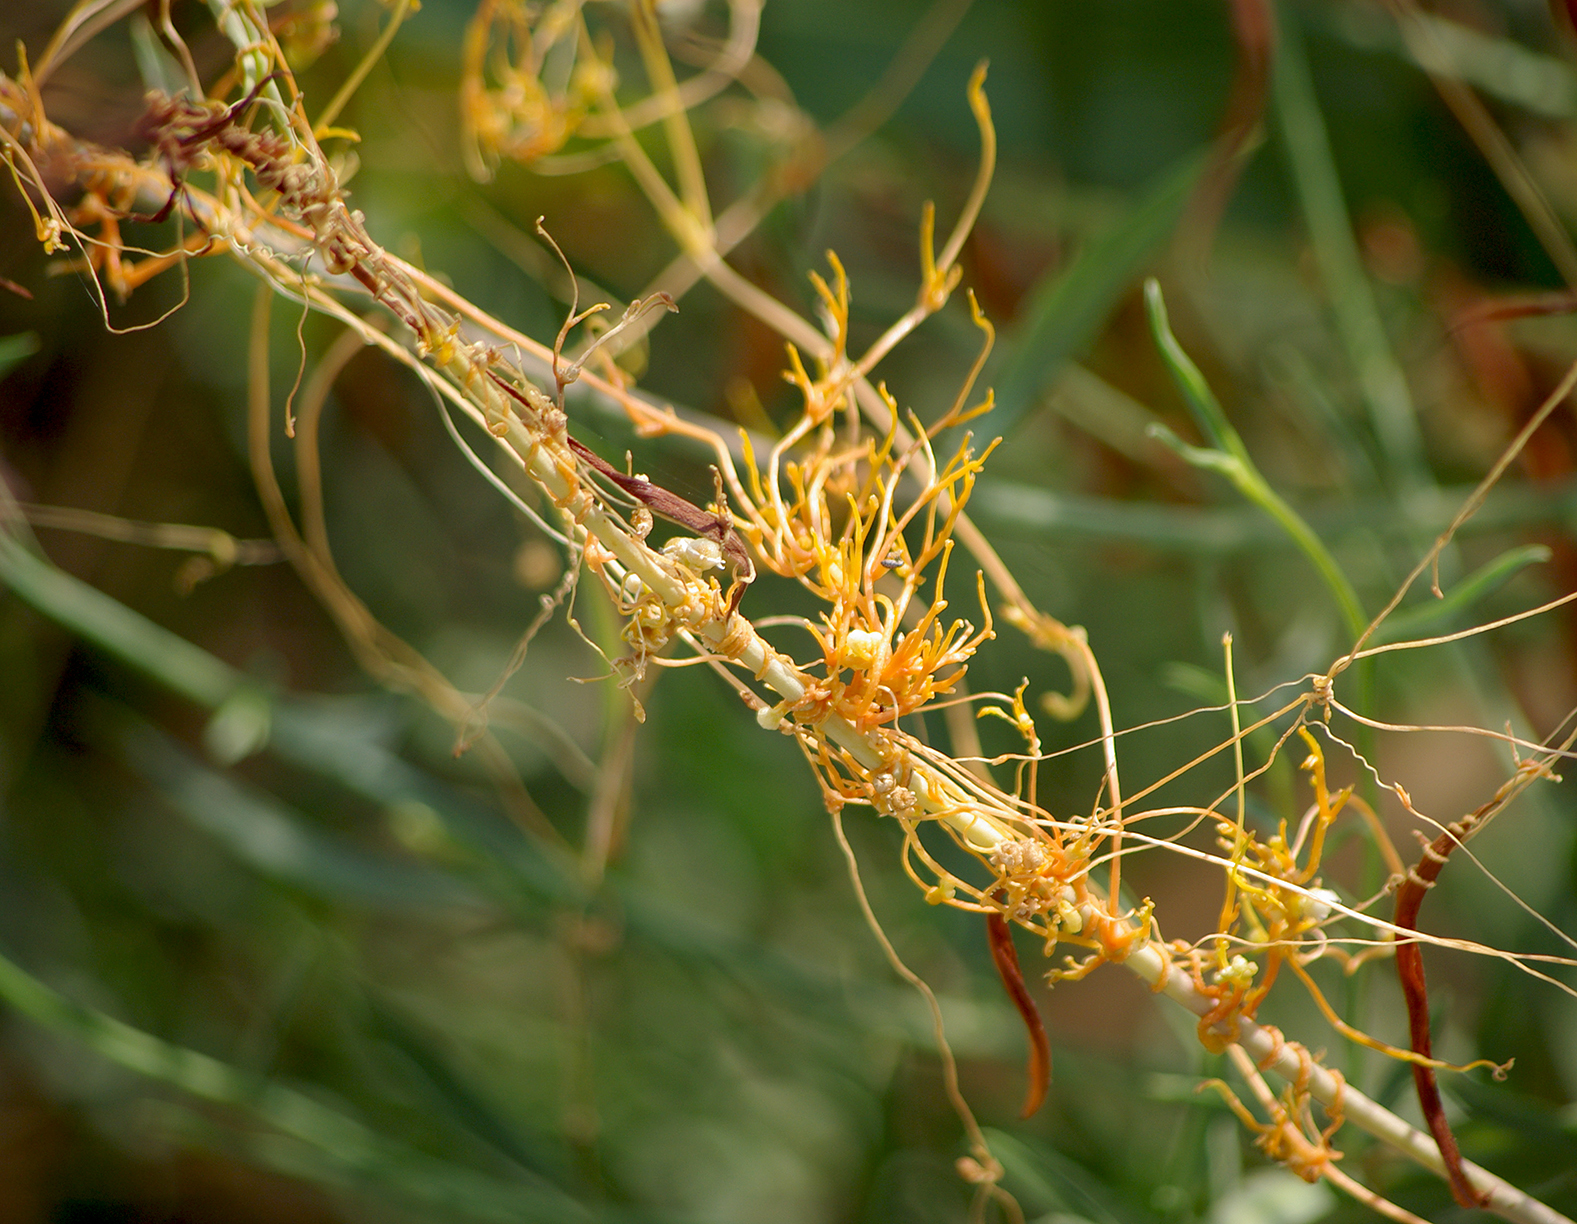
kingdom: Plantae
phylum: Tracheophyta
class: Magnoliopsida
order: Solanales
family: Convolvulaceae
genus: Cuscuta
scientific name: Cuscuta approximata
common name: Alfalfa dodder
